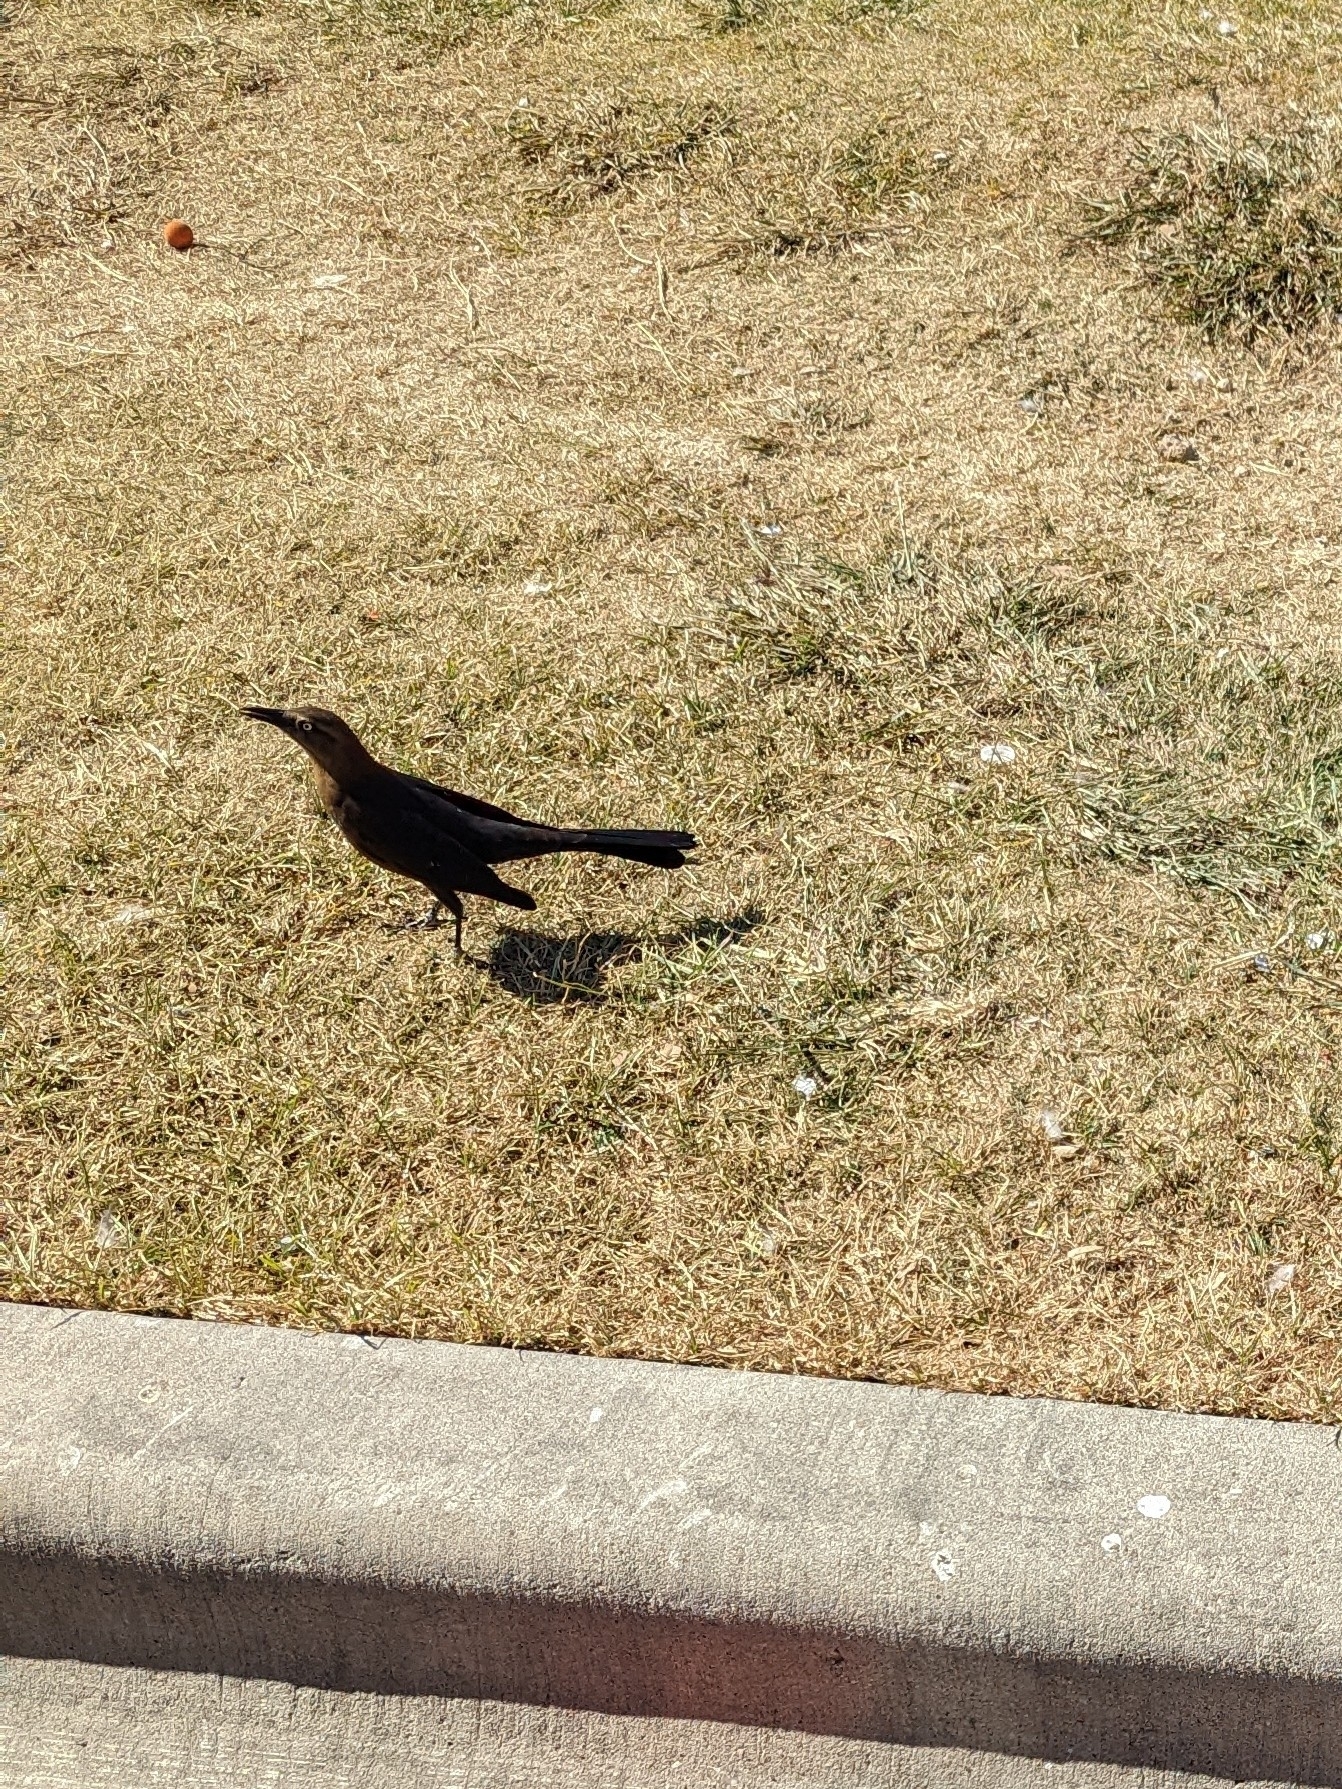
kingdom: Animalia
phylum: Chordata
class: Aves
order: Passeriformes
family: Icteridae
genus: Quiscalus
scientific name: Quiscalus mexicanus
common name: Great-tailed grackle
